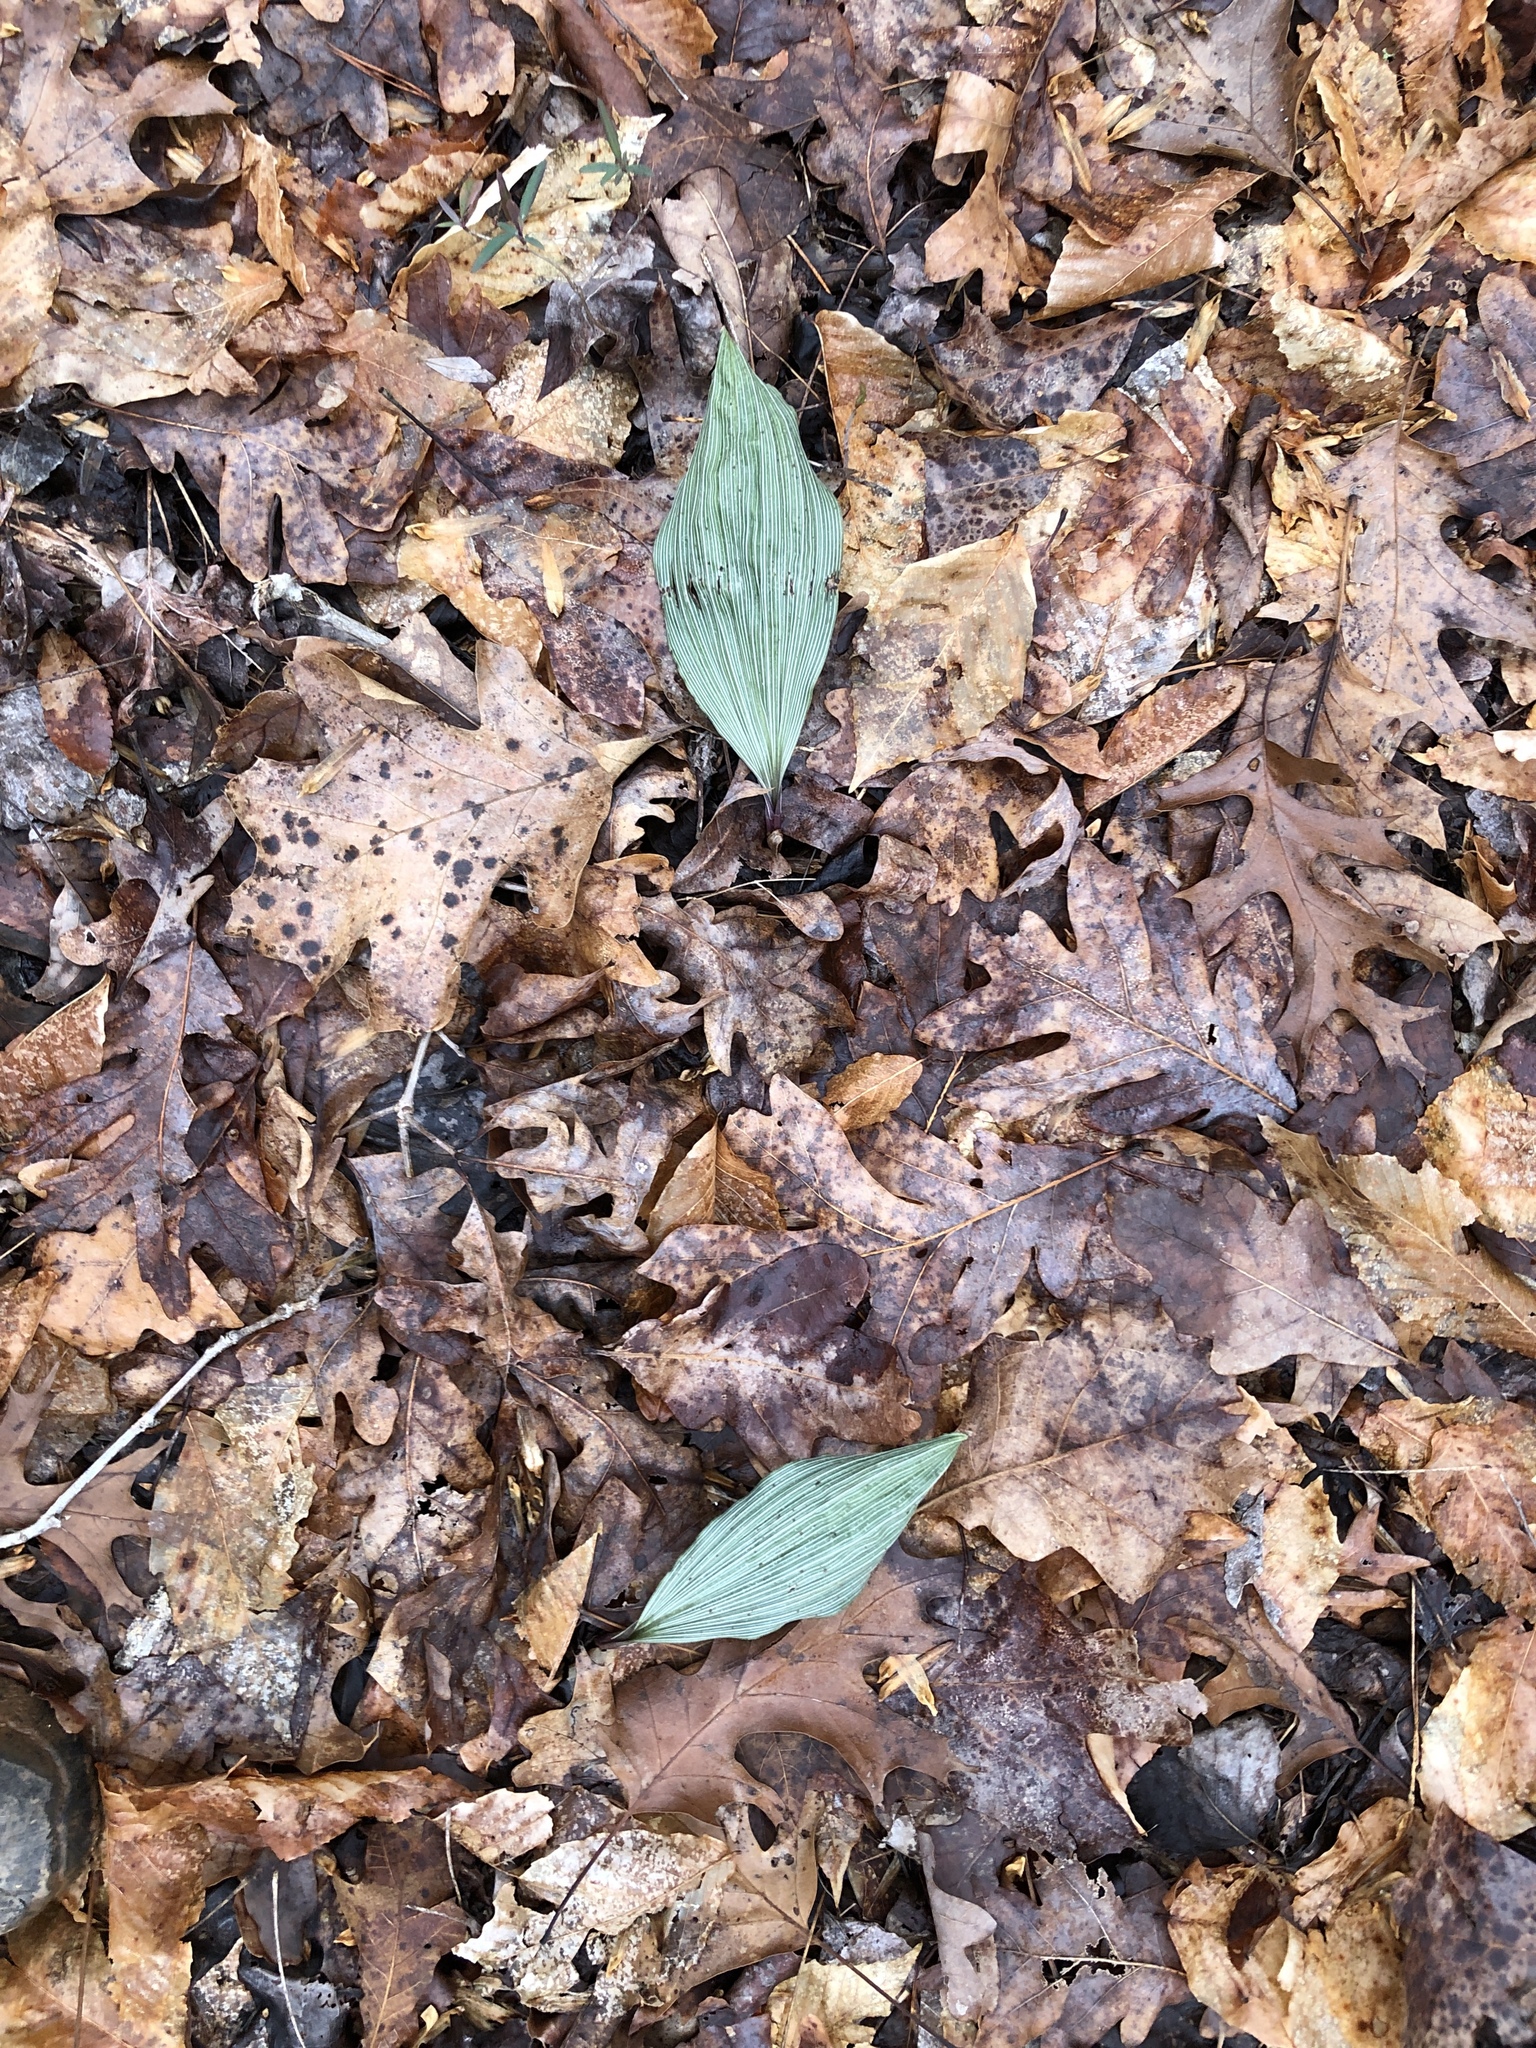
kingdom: Plantae
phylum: Tracheophyta
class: Liliopsida
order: Asparagales
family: Orchidaceae
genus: Aplectrum
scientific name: Aplectrum hyemale
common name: Adam-and-eve
